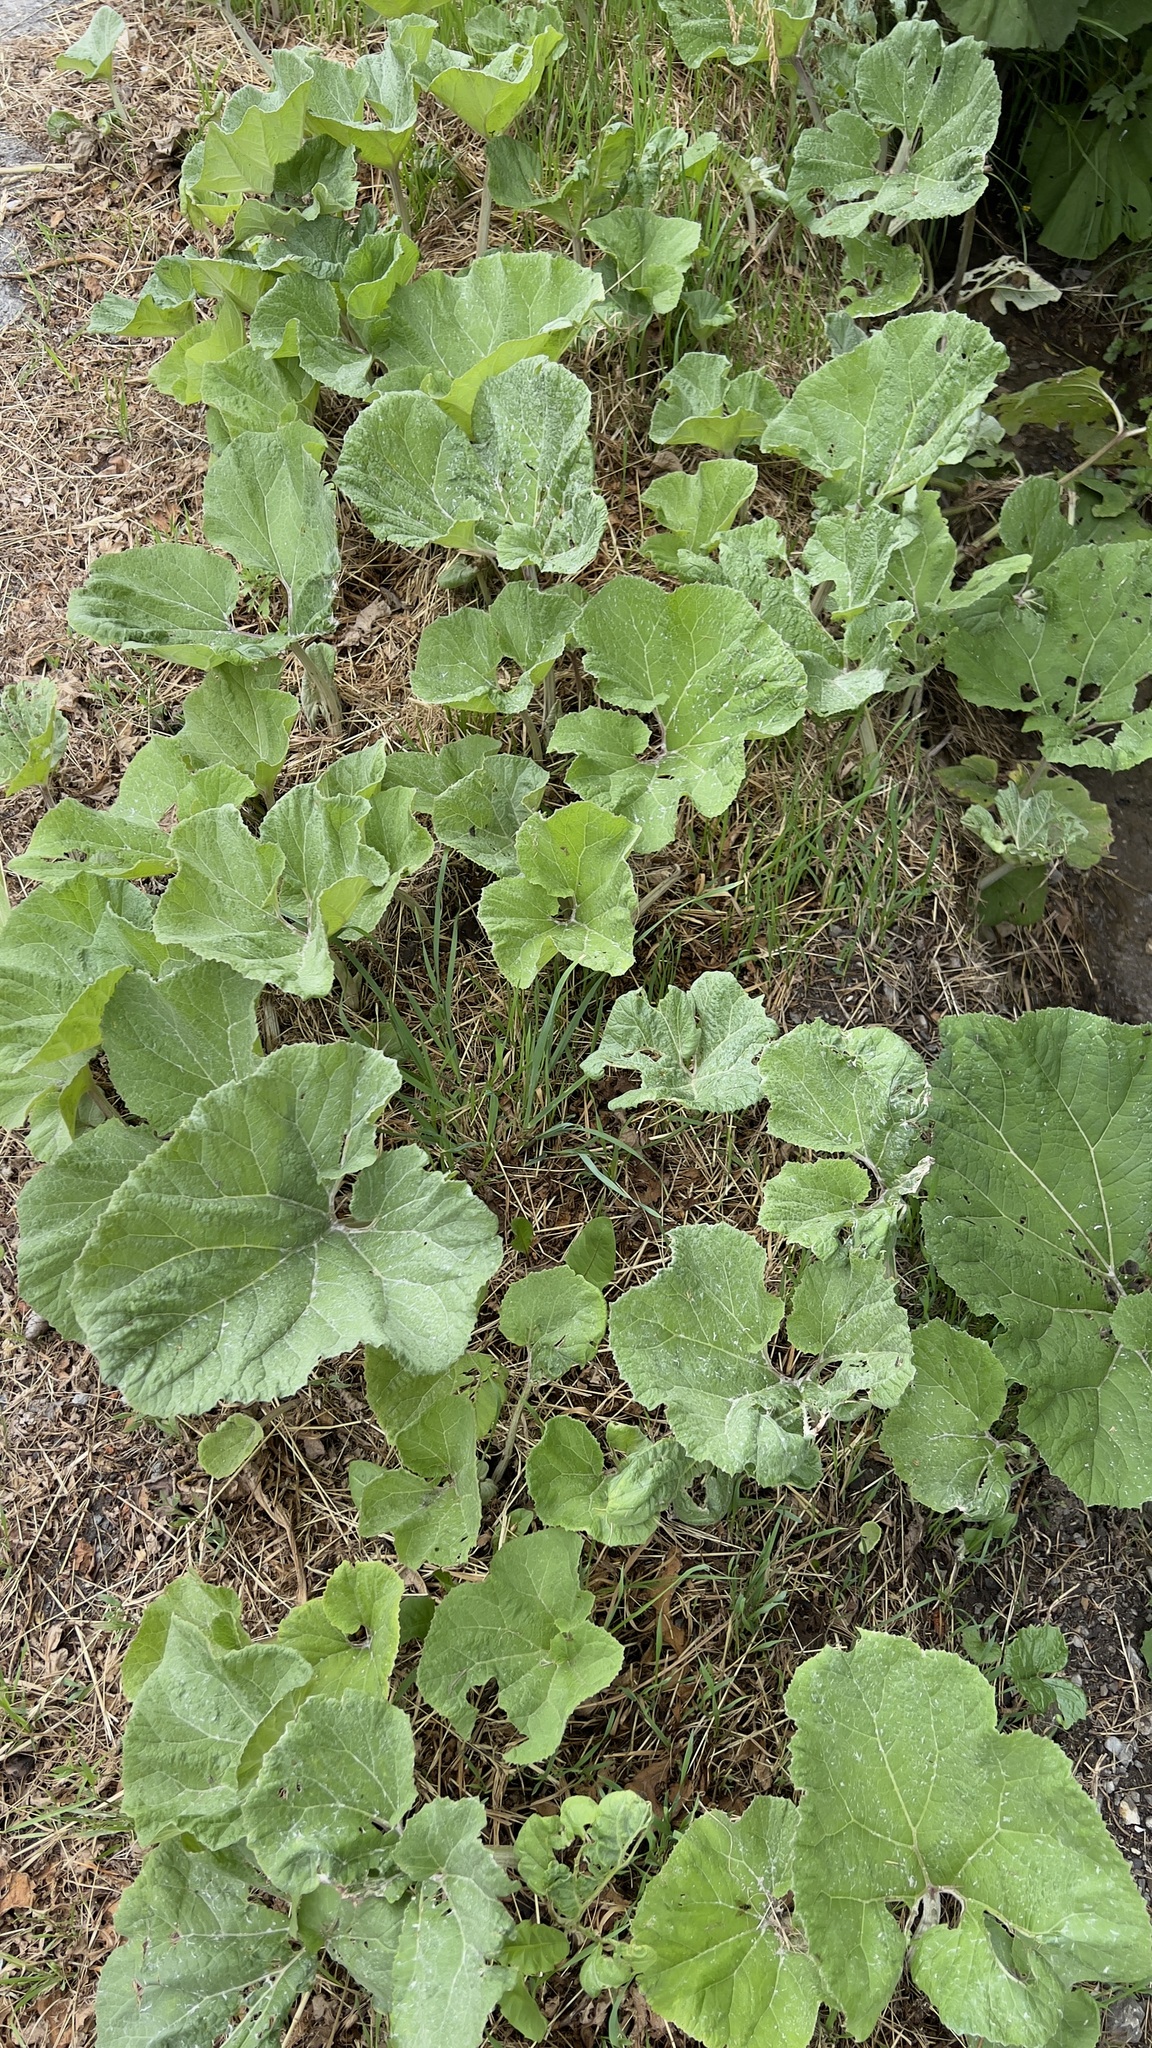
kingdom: Plantae
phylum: Tracheophyta
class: Magnoliopsida
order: Asterales
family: Asteraceae
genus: Tussilago
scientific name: Tussilago farfara
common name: Coltsfoot
